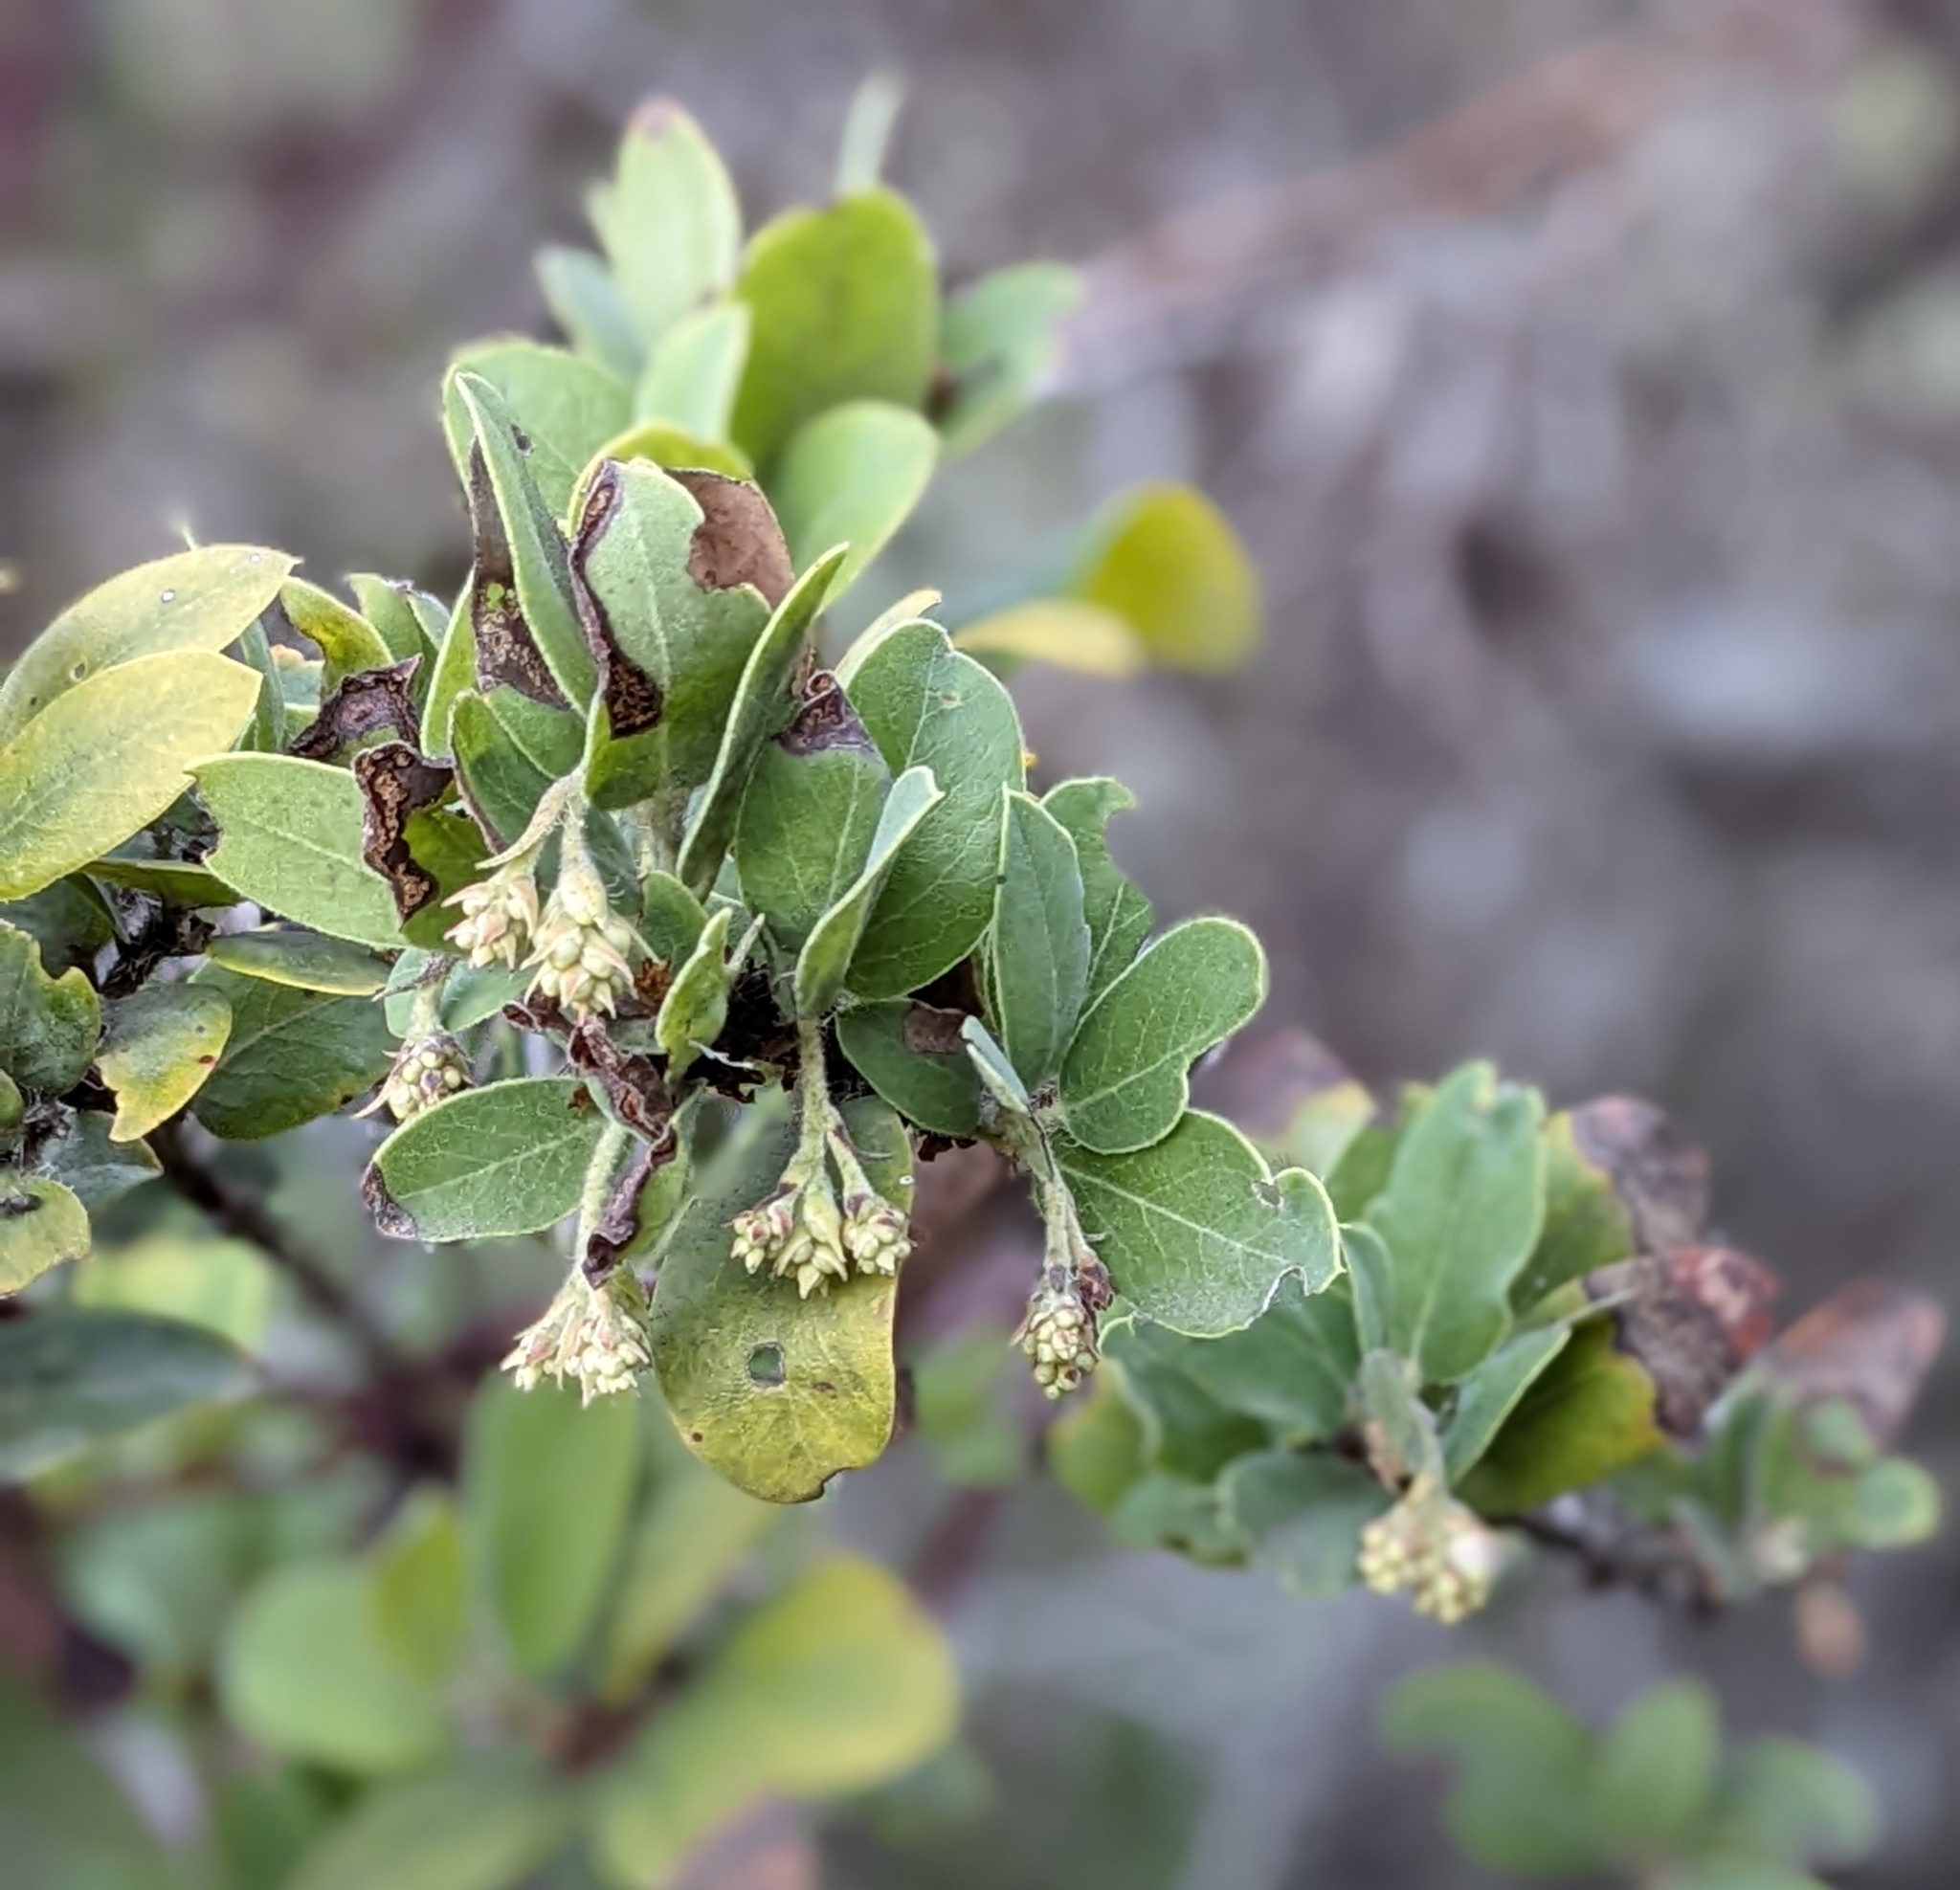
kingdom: Plantae
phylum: Tracheophyta
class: Magnoliopsida
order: Ericales
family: Ericaceae
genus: Arctostaphylos
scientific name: Arctostaphylos crustacea
